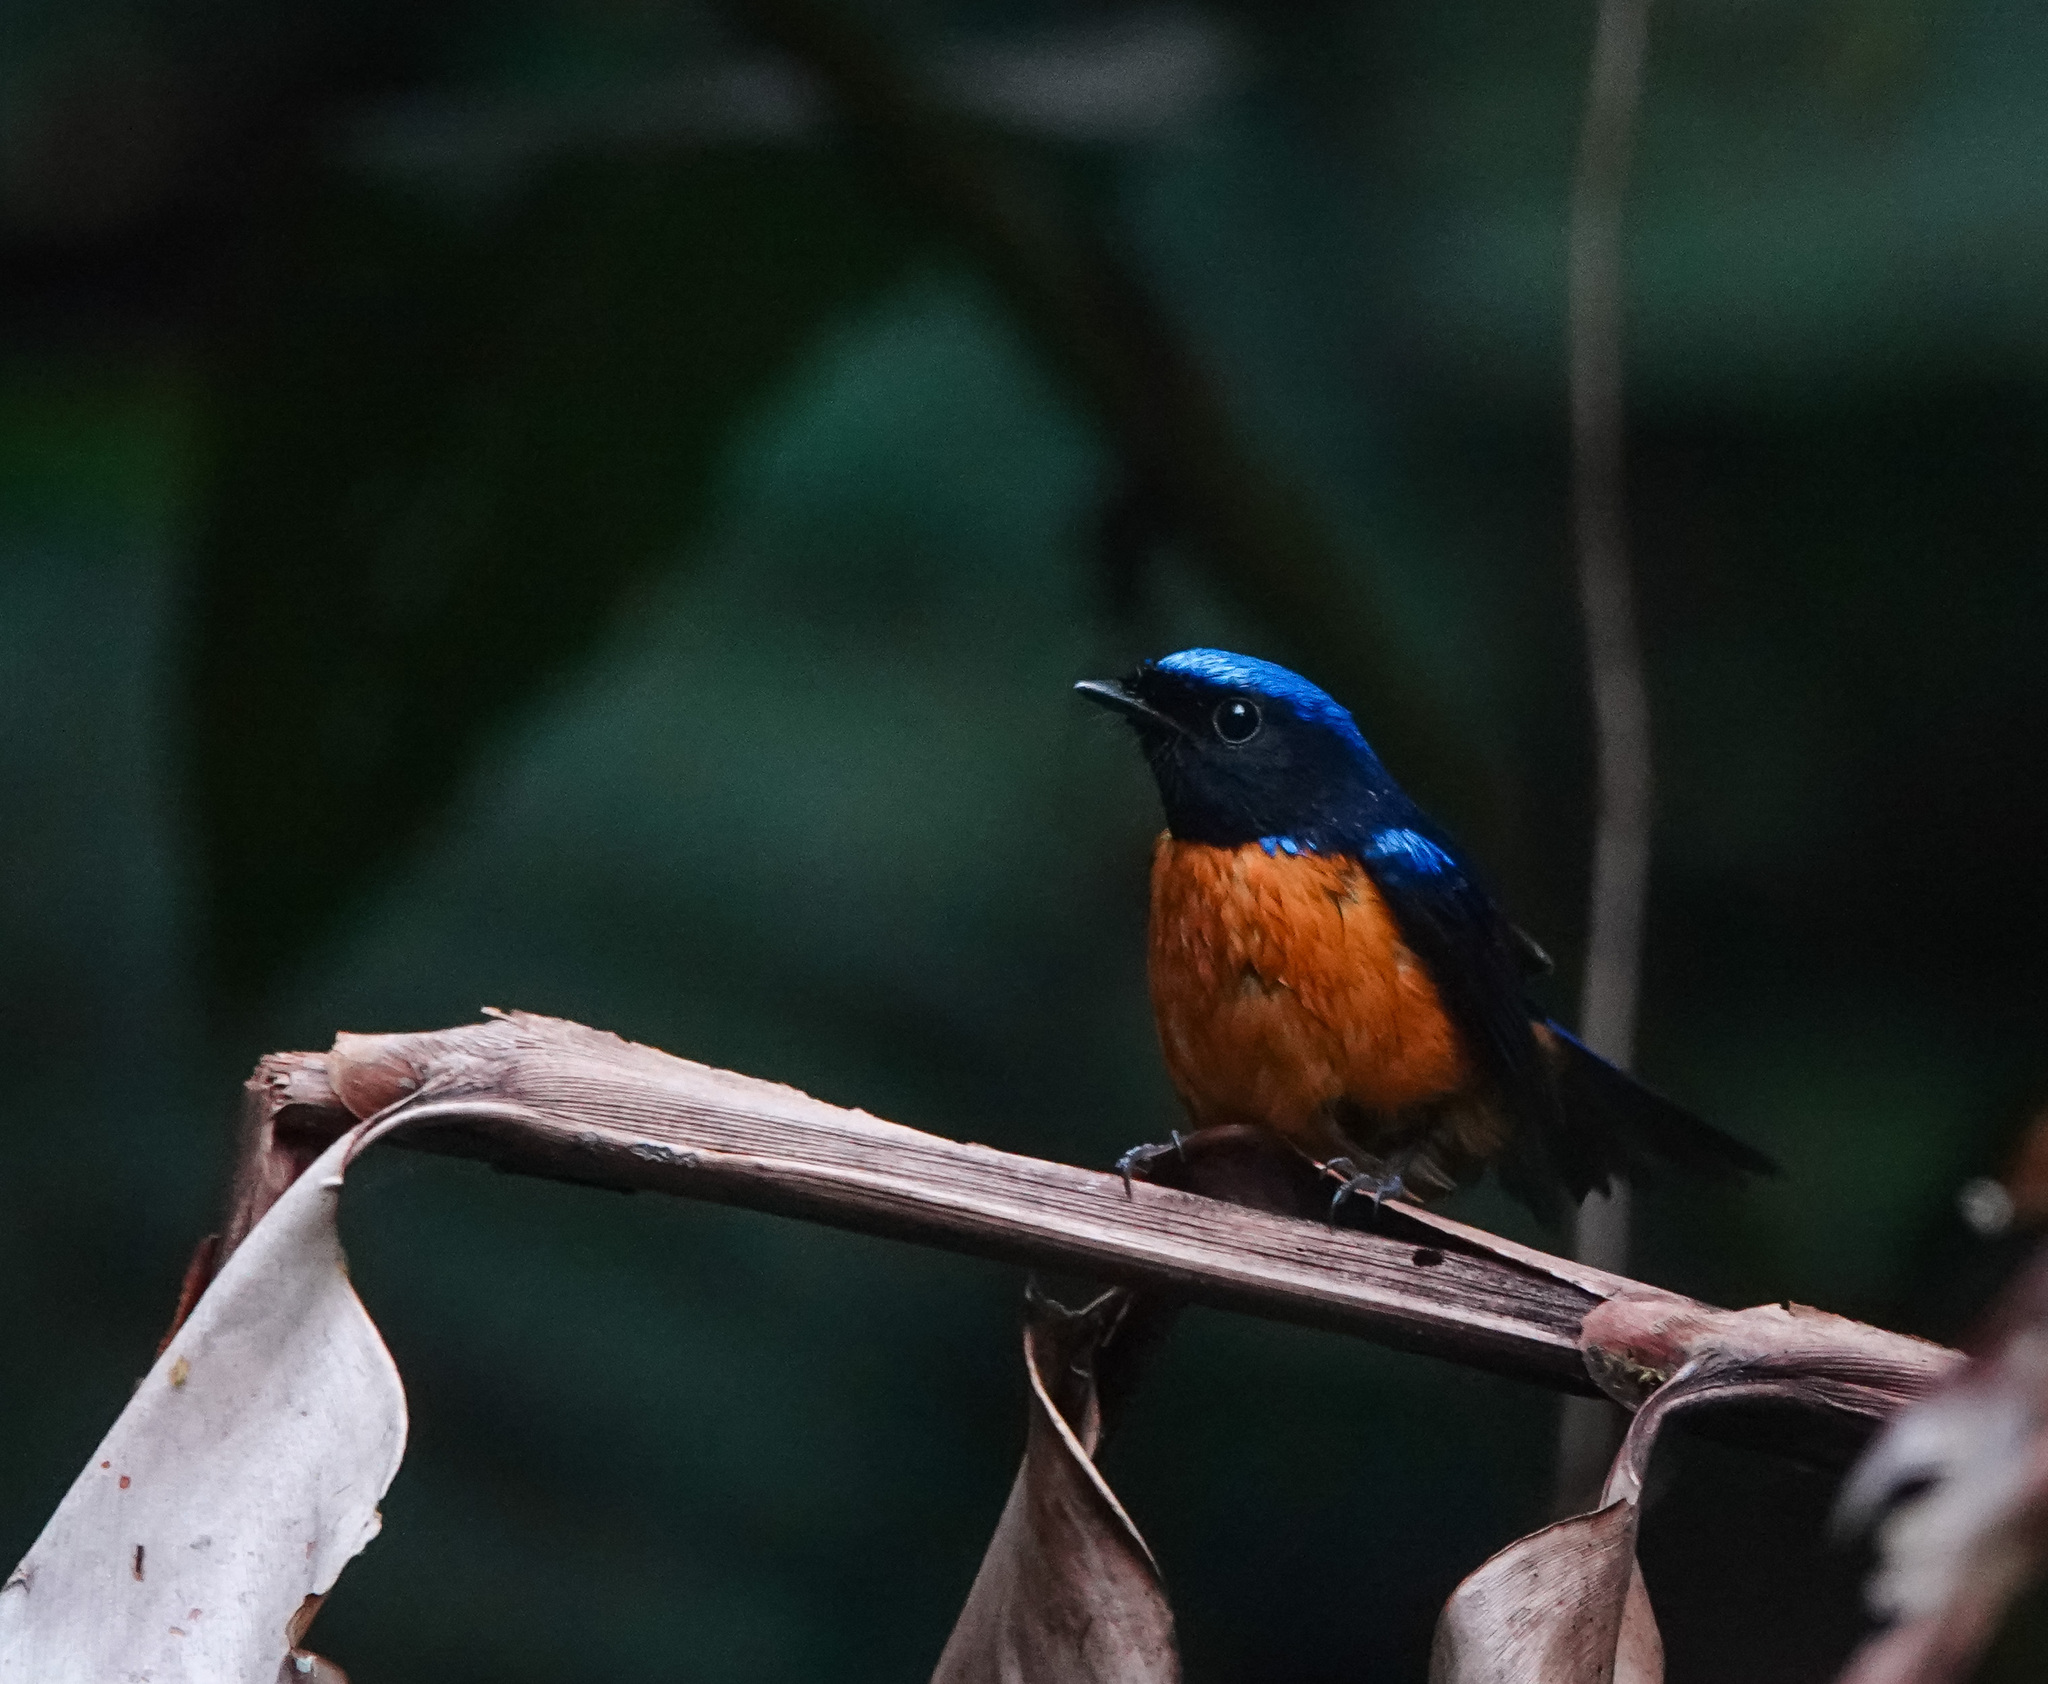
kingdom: Animalia
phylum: Chordata
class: Aves
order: Passeriformes
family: Muscicapidae
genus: Niltava
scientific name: Niltava sundara
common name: Rufous-bellied niltava
